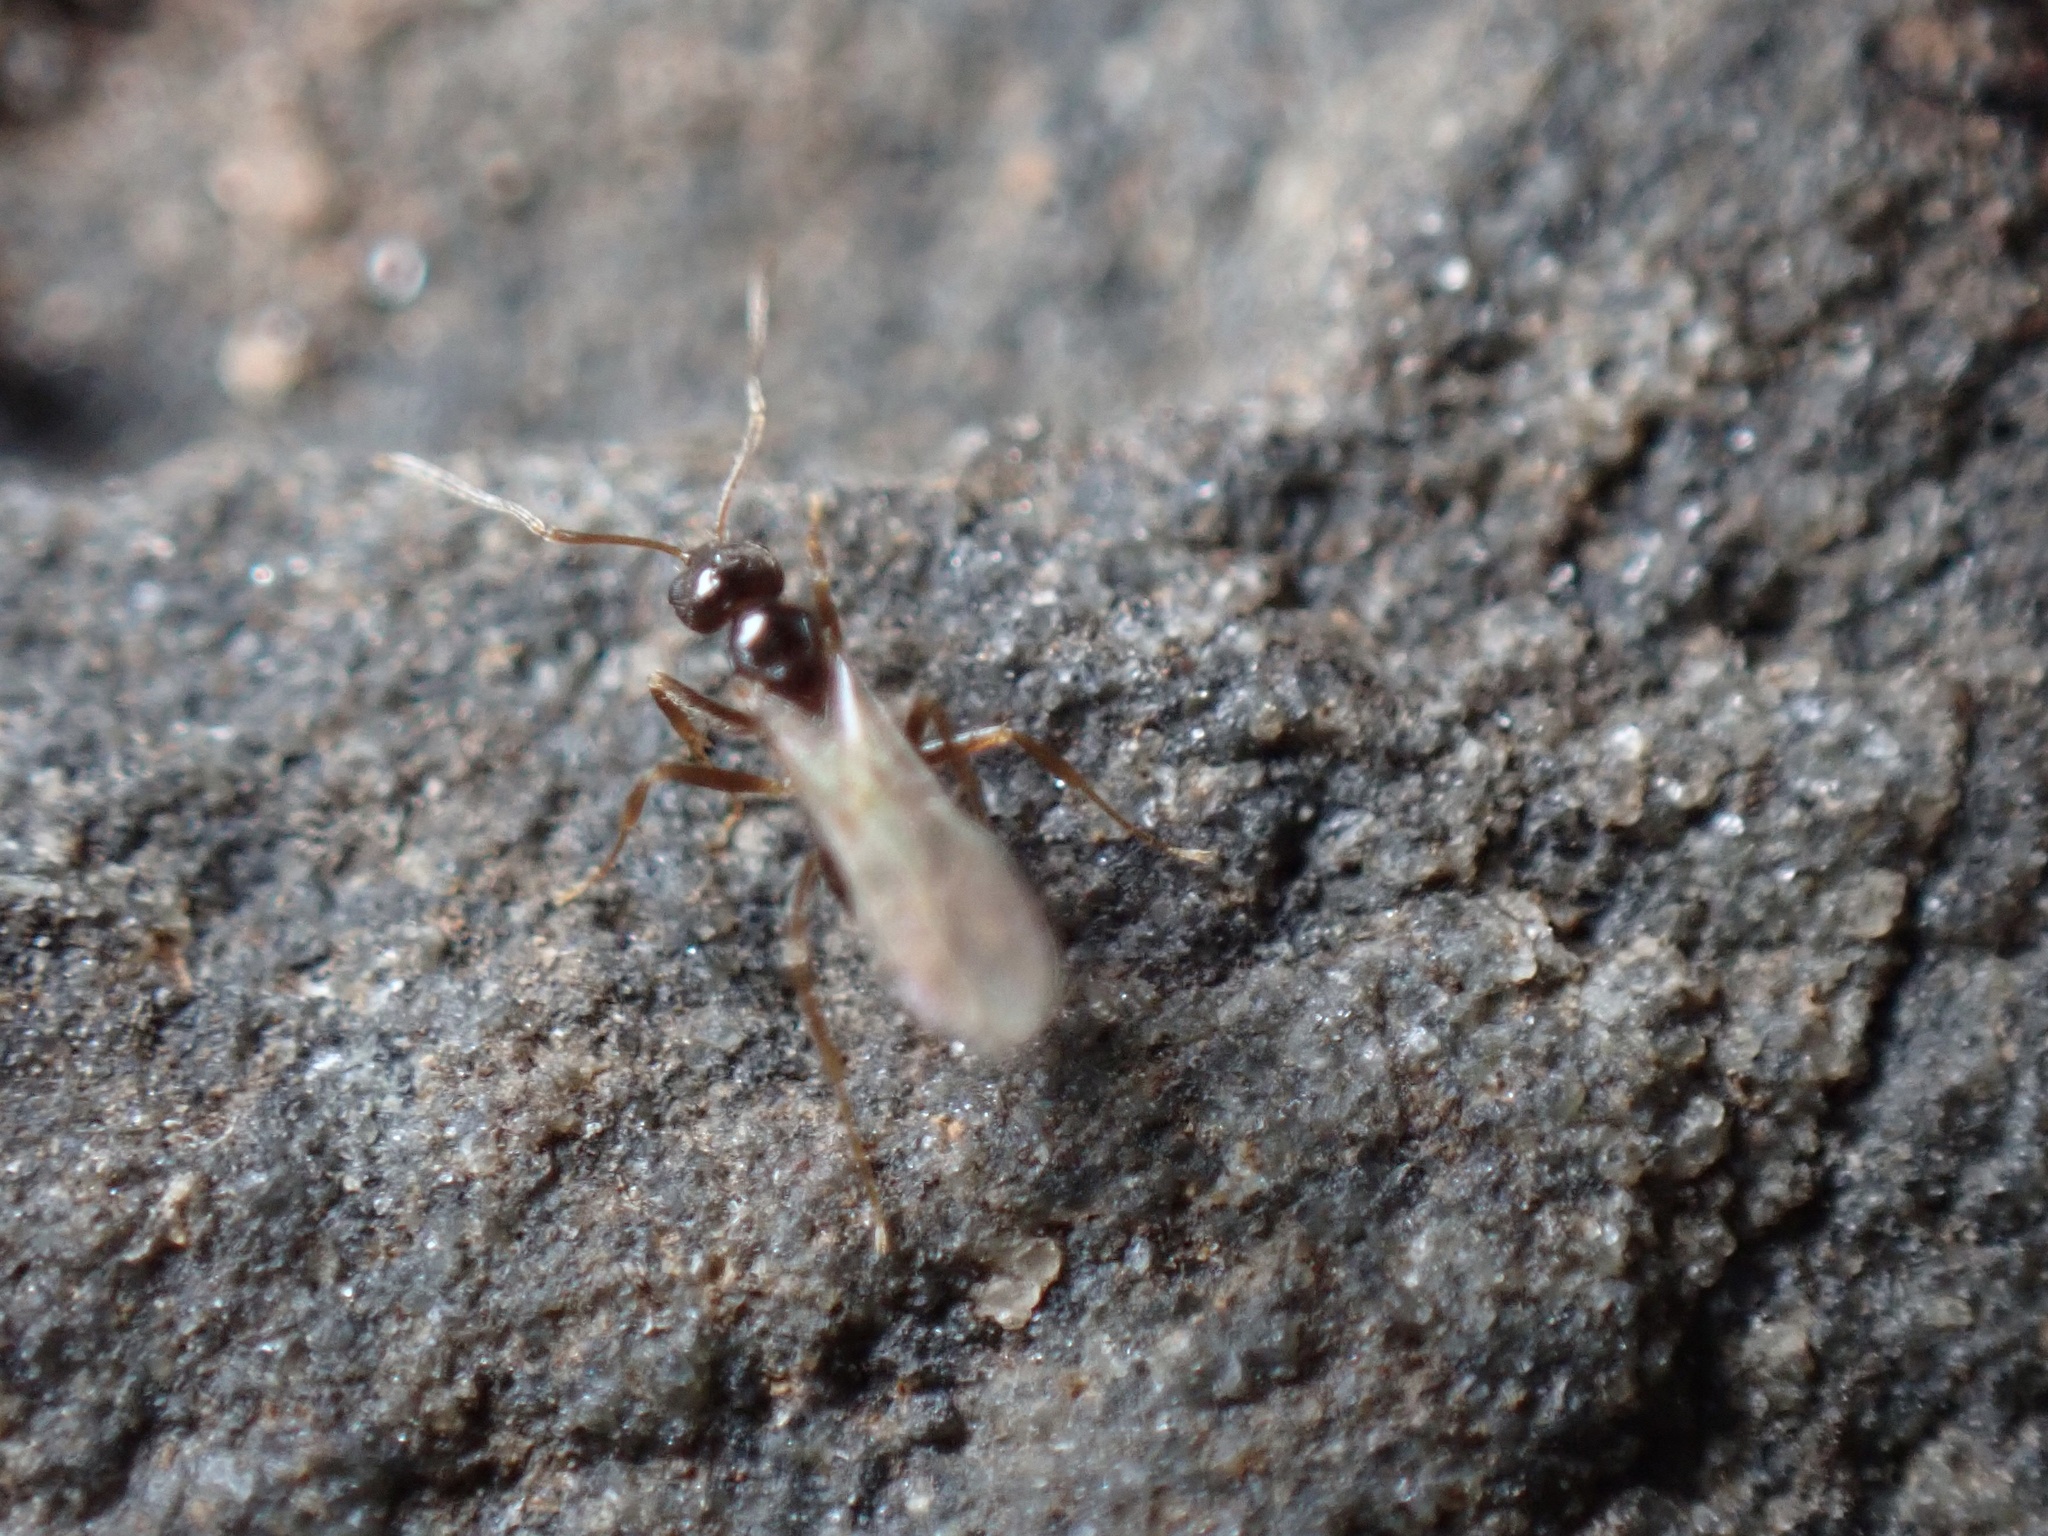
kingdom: Animalia
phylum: Arthropoda
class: Insecta
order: Hymenoptera
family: Formicidae
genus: Paratrechina
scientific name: Paratrechina flavipes
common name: Eastern asian formicine ant
